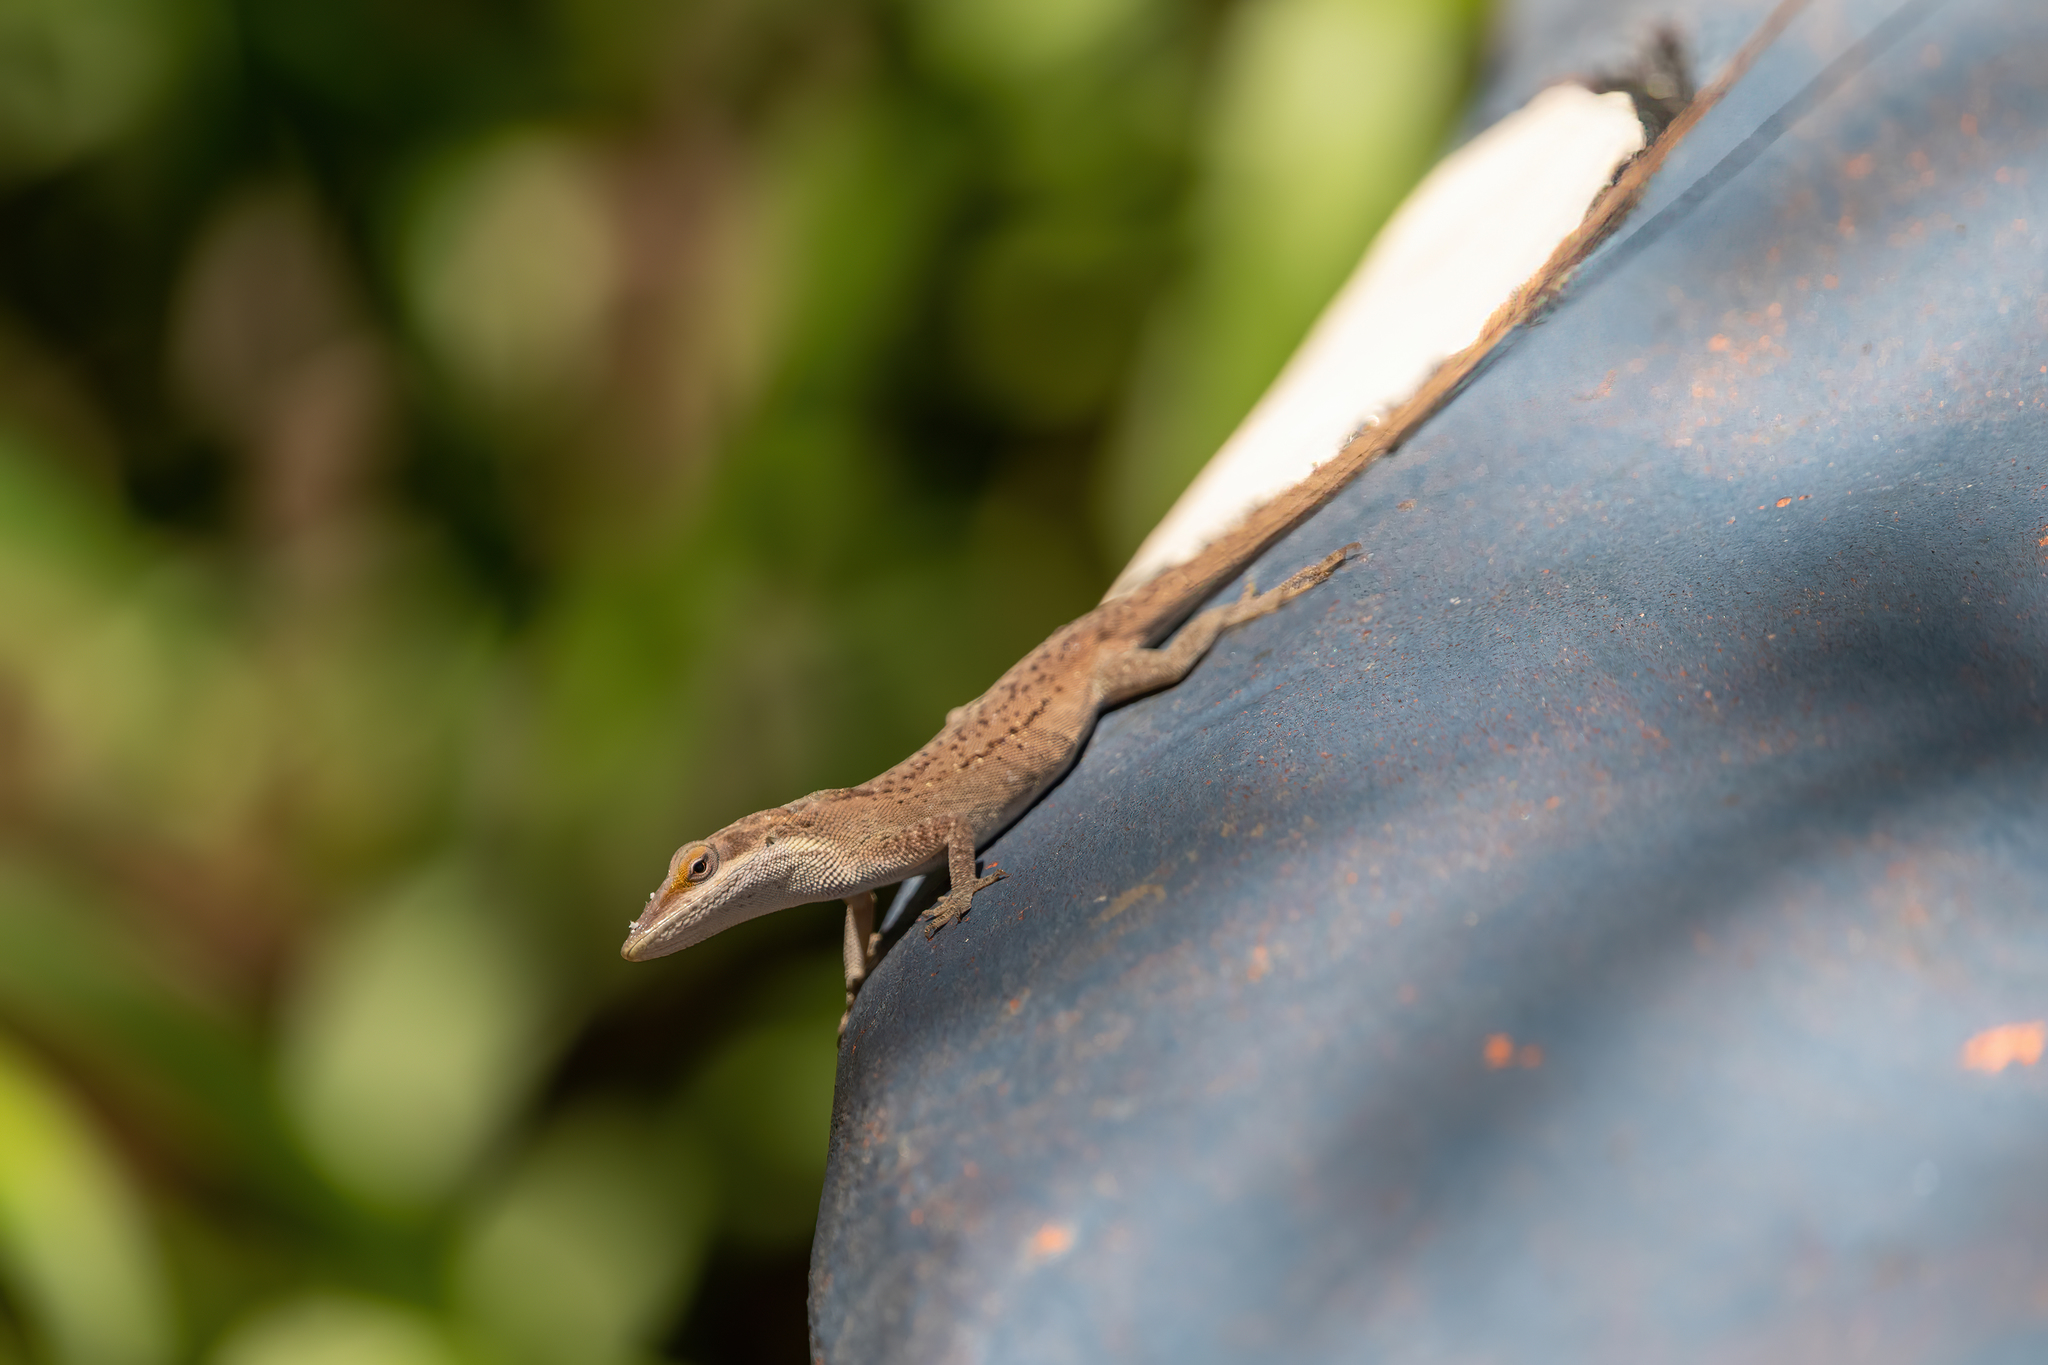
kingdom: Animalia
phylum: Chordata
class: Squamata
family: Dactyloidae
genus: Anolis
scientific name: Anolis carolinensis
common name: Green anole
